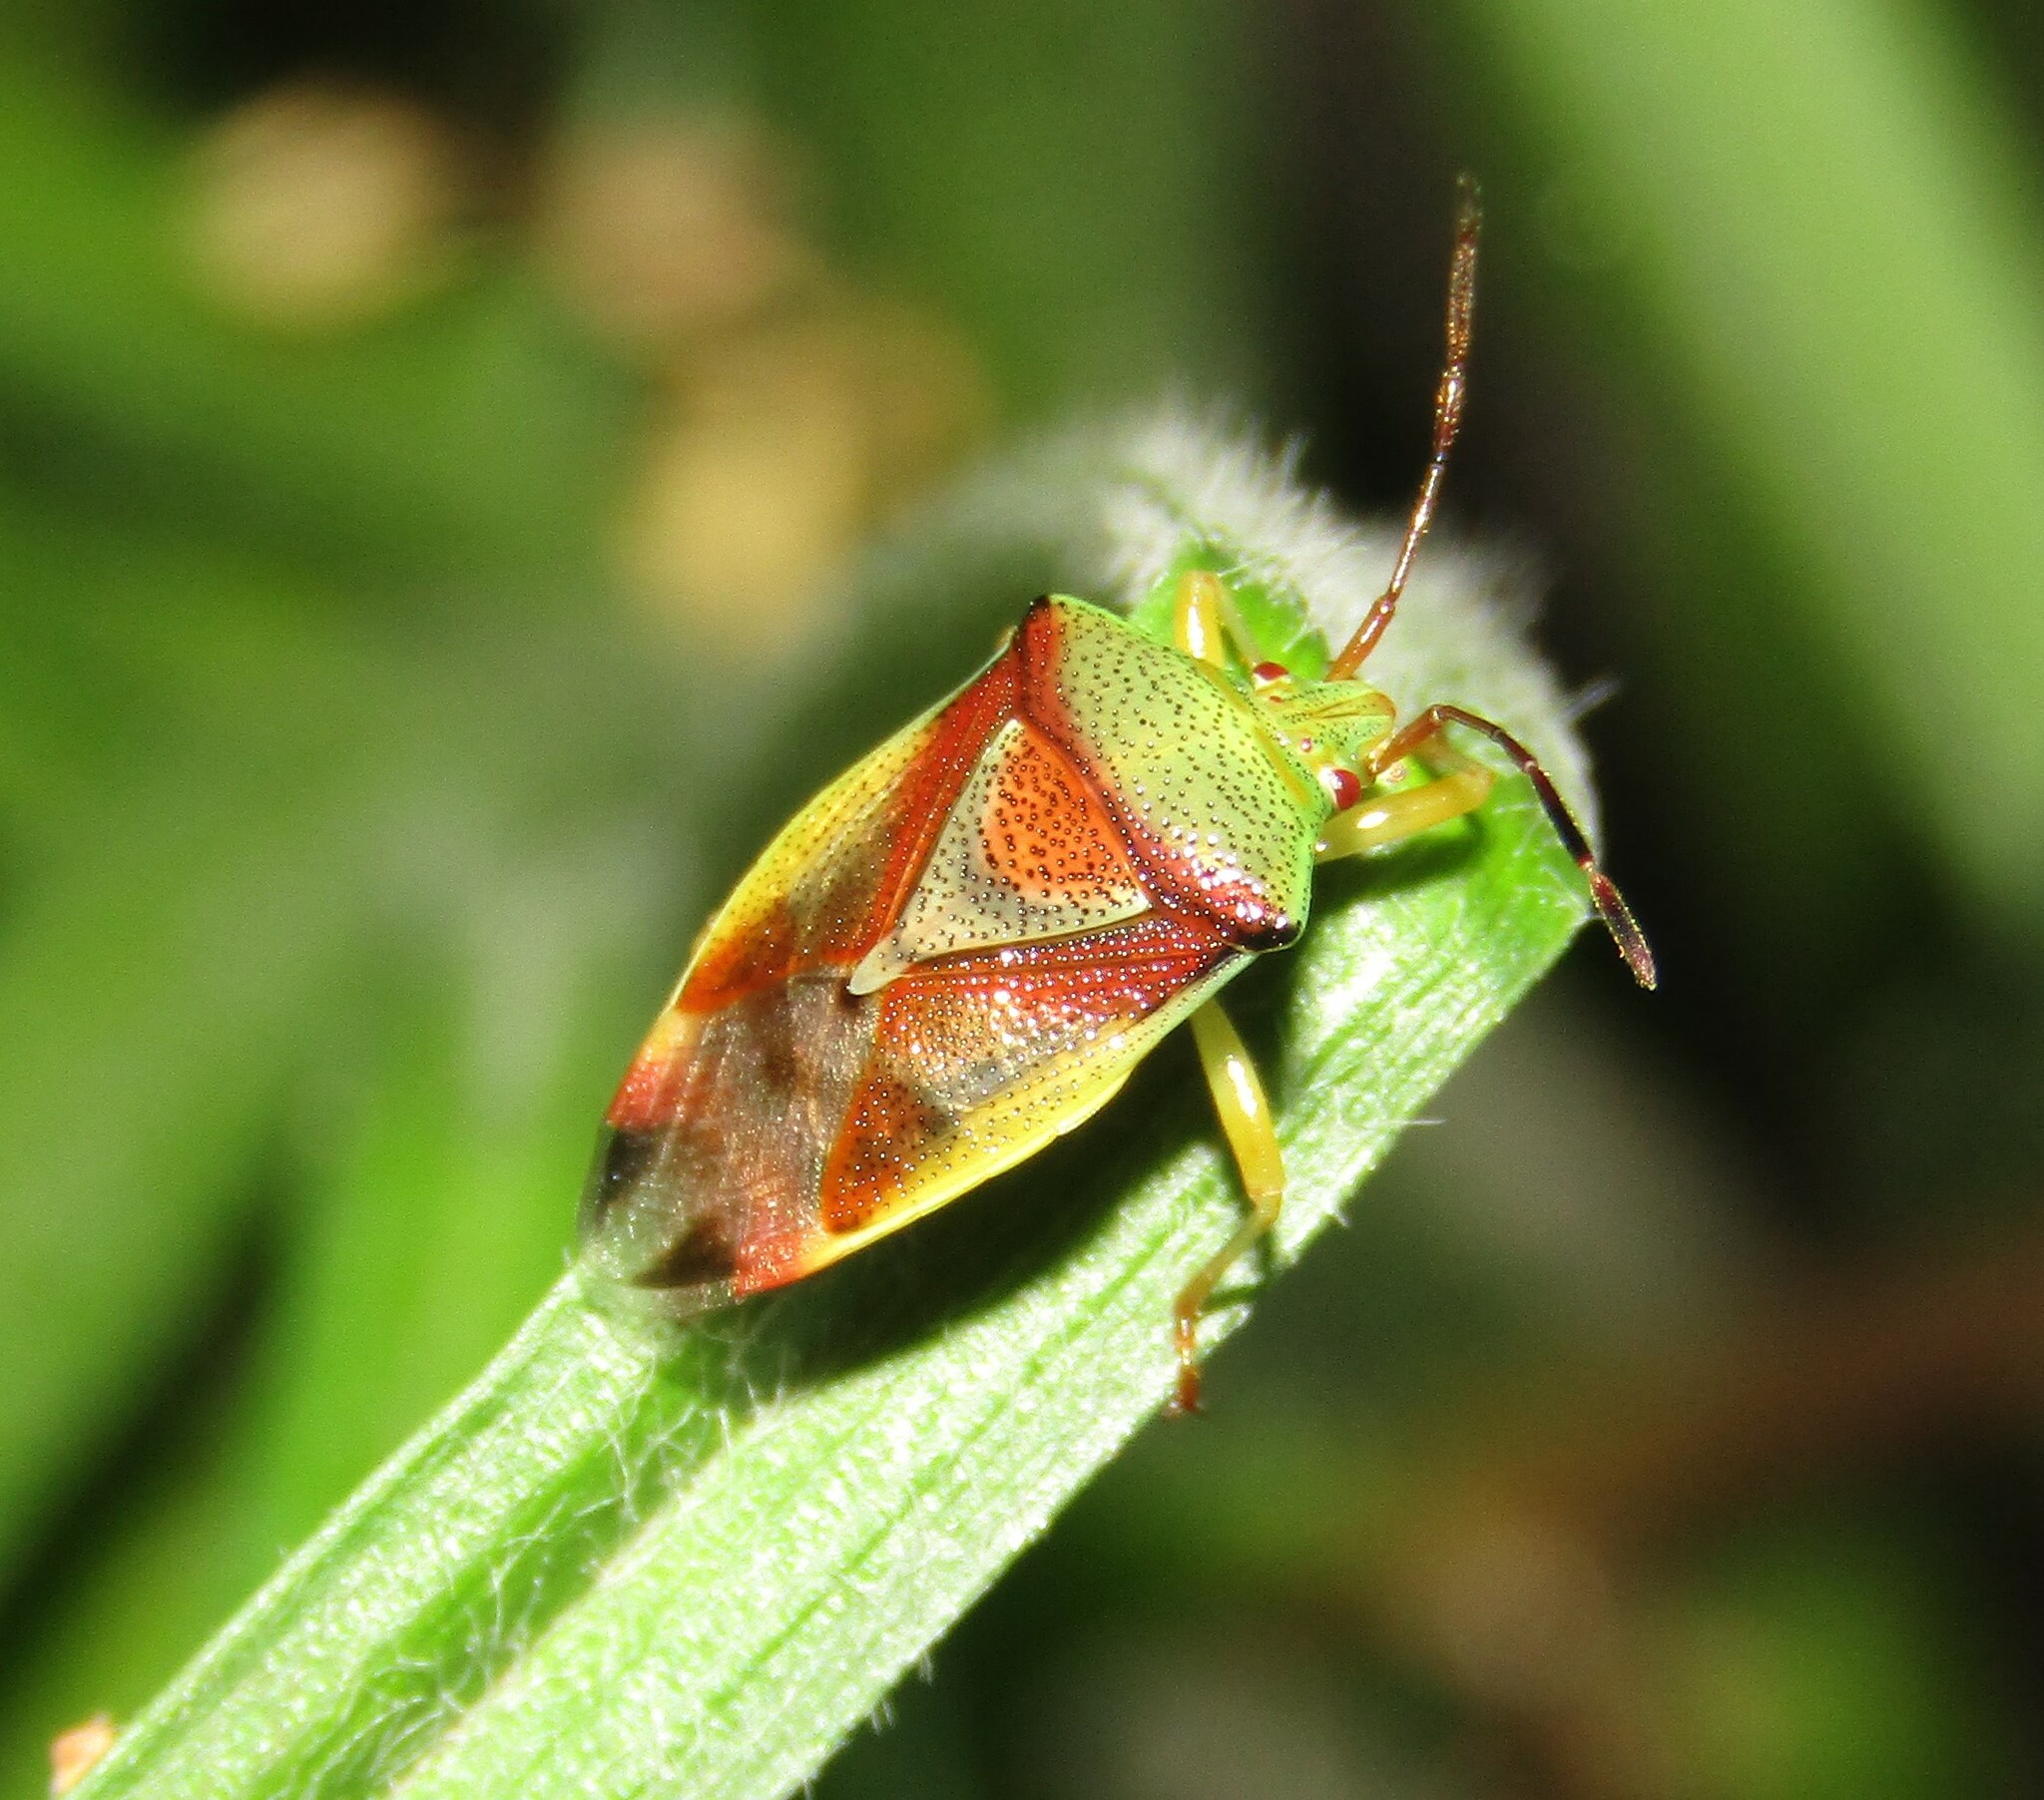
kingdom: Animalia
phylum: Arthropoda
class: Insecta
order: Hemiptera
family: Acanthosomatidae
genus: Elasmostethus
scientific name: Elasmostethus
